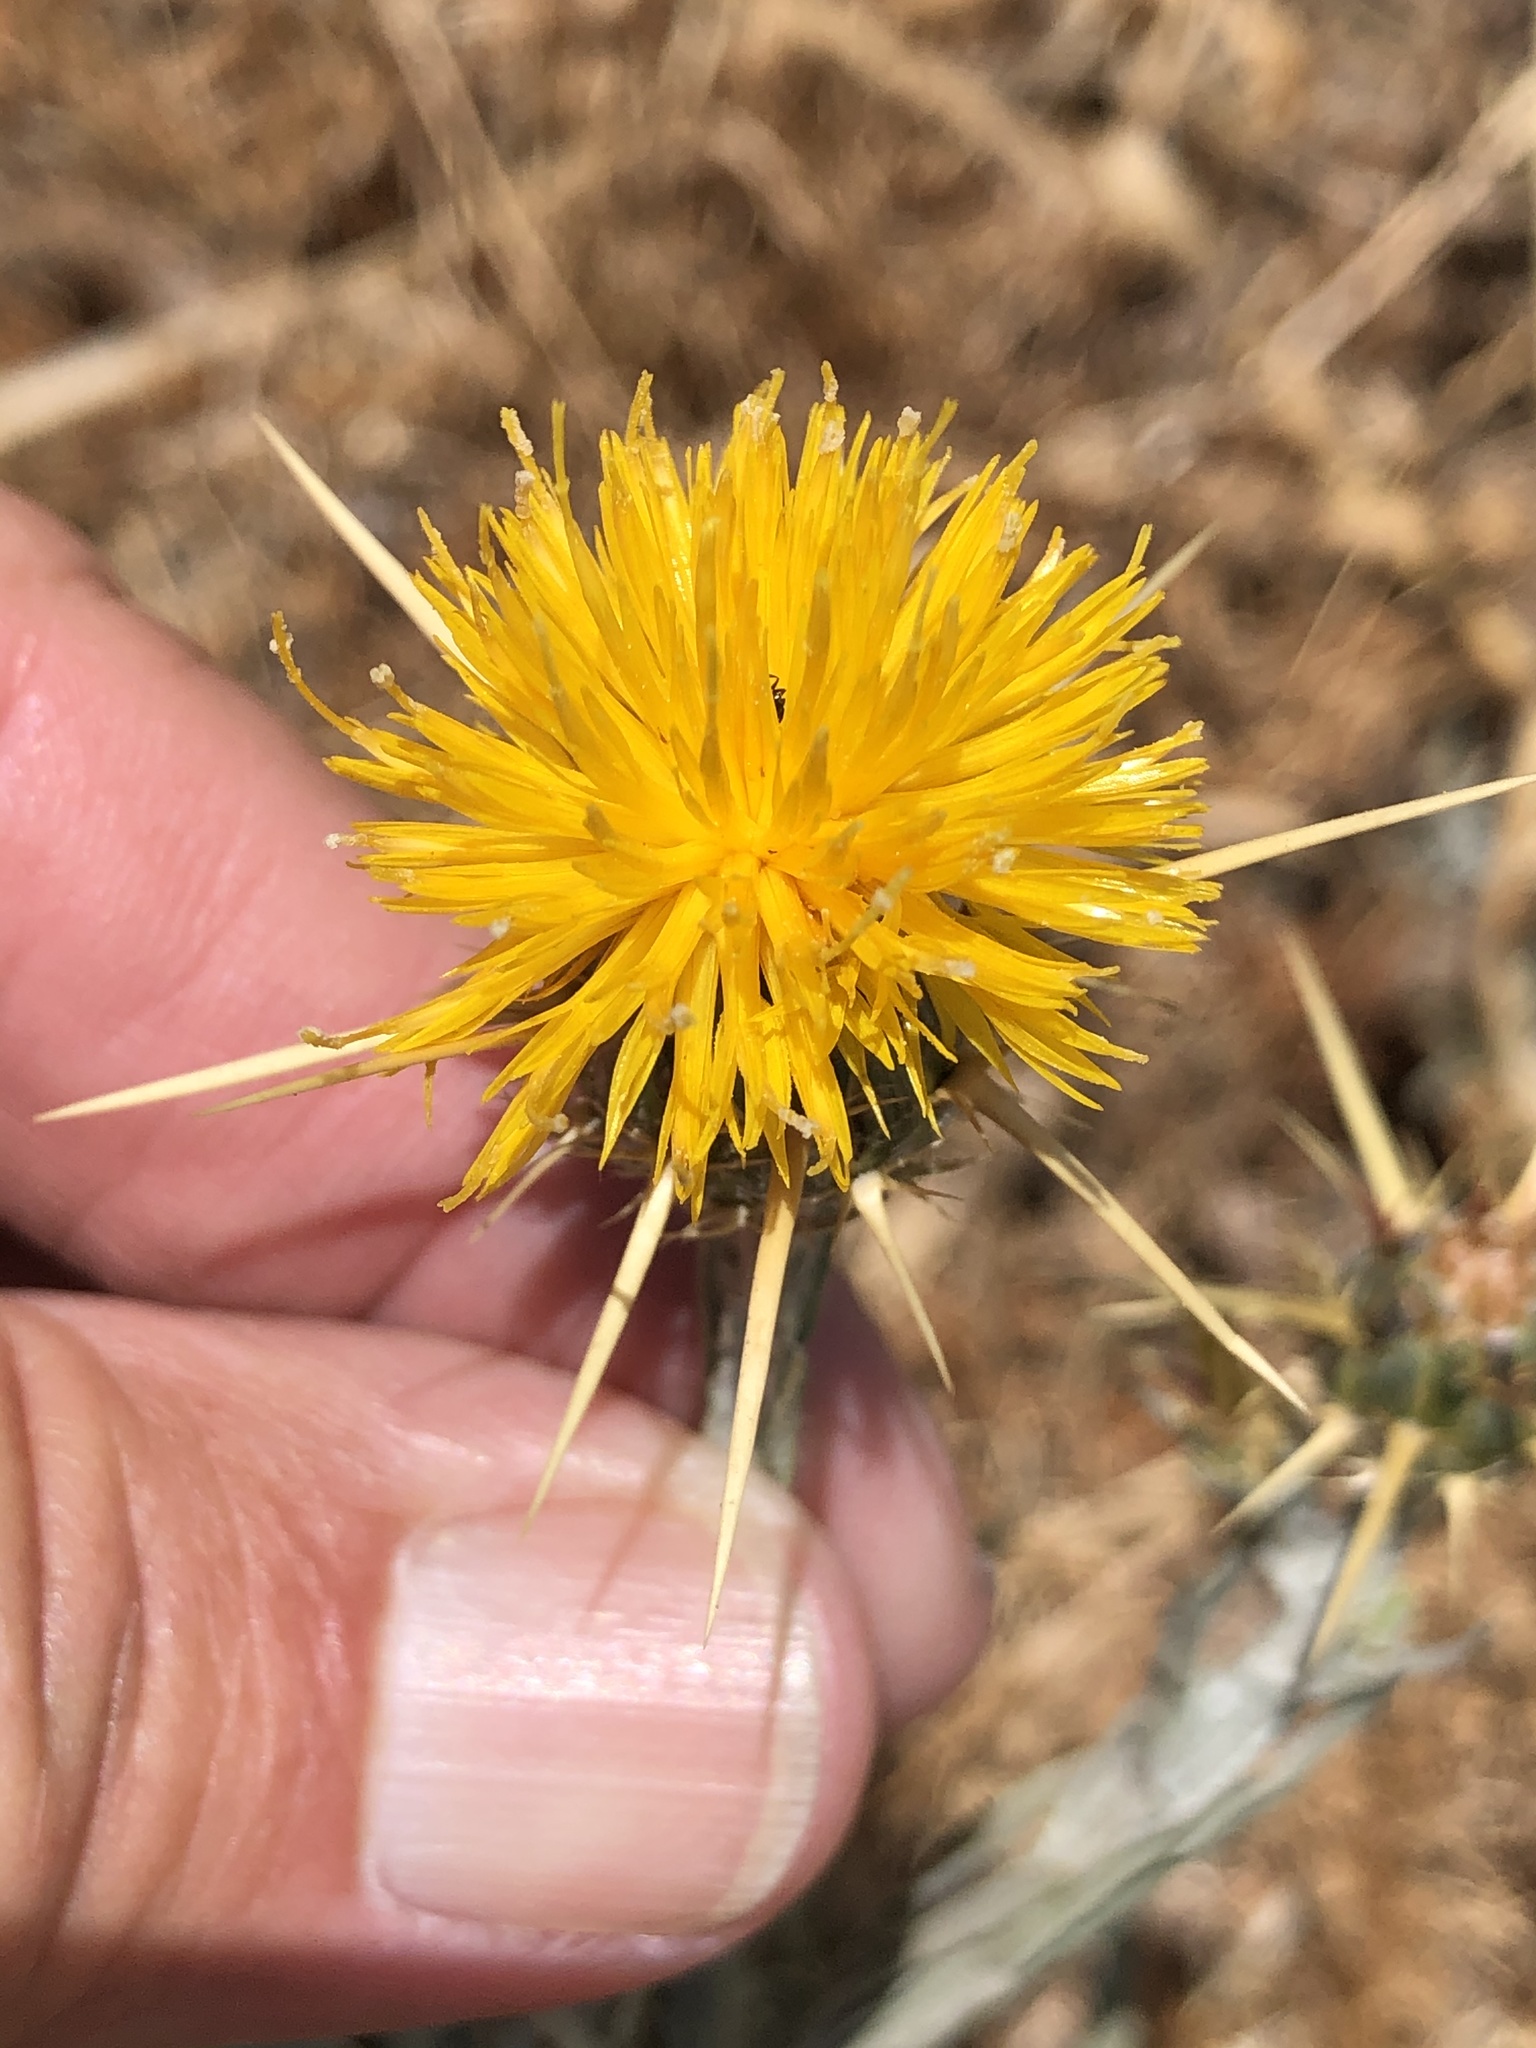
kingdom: Plantae
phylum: Tracheophyta
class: Magnoliopsida
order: Asterales
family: Asteraceae
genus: Centaurea
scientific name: Centaurea solstitialis
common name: Yellow star-thistle
